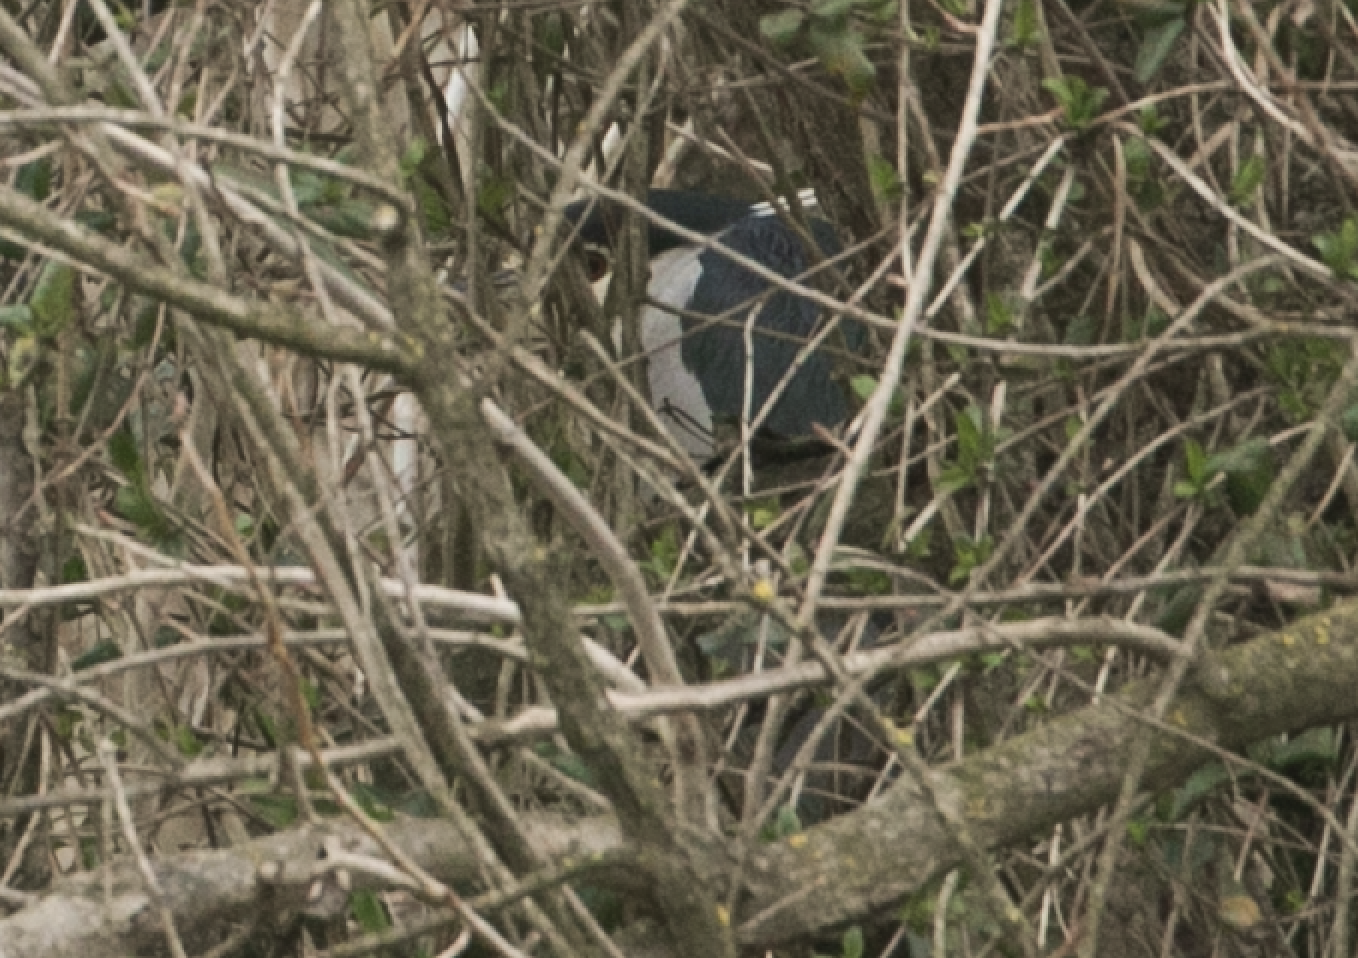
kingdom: Animalia
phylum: Chordata
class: Aves
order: Pelecaniformes
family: Ardeidae
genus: Nycticorax
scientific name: Nycticorax nycticorax
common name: Black-crowned night heron
